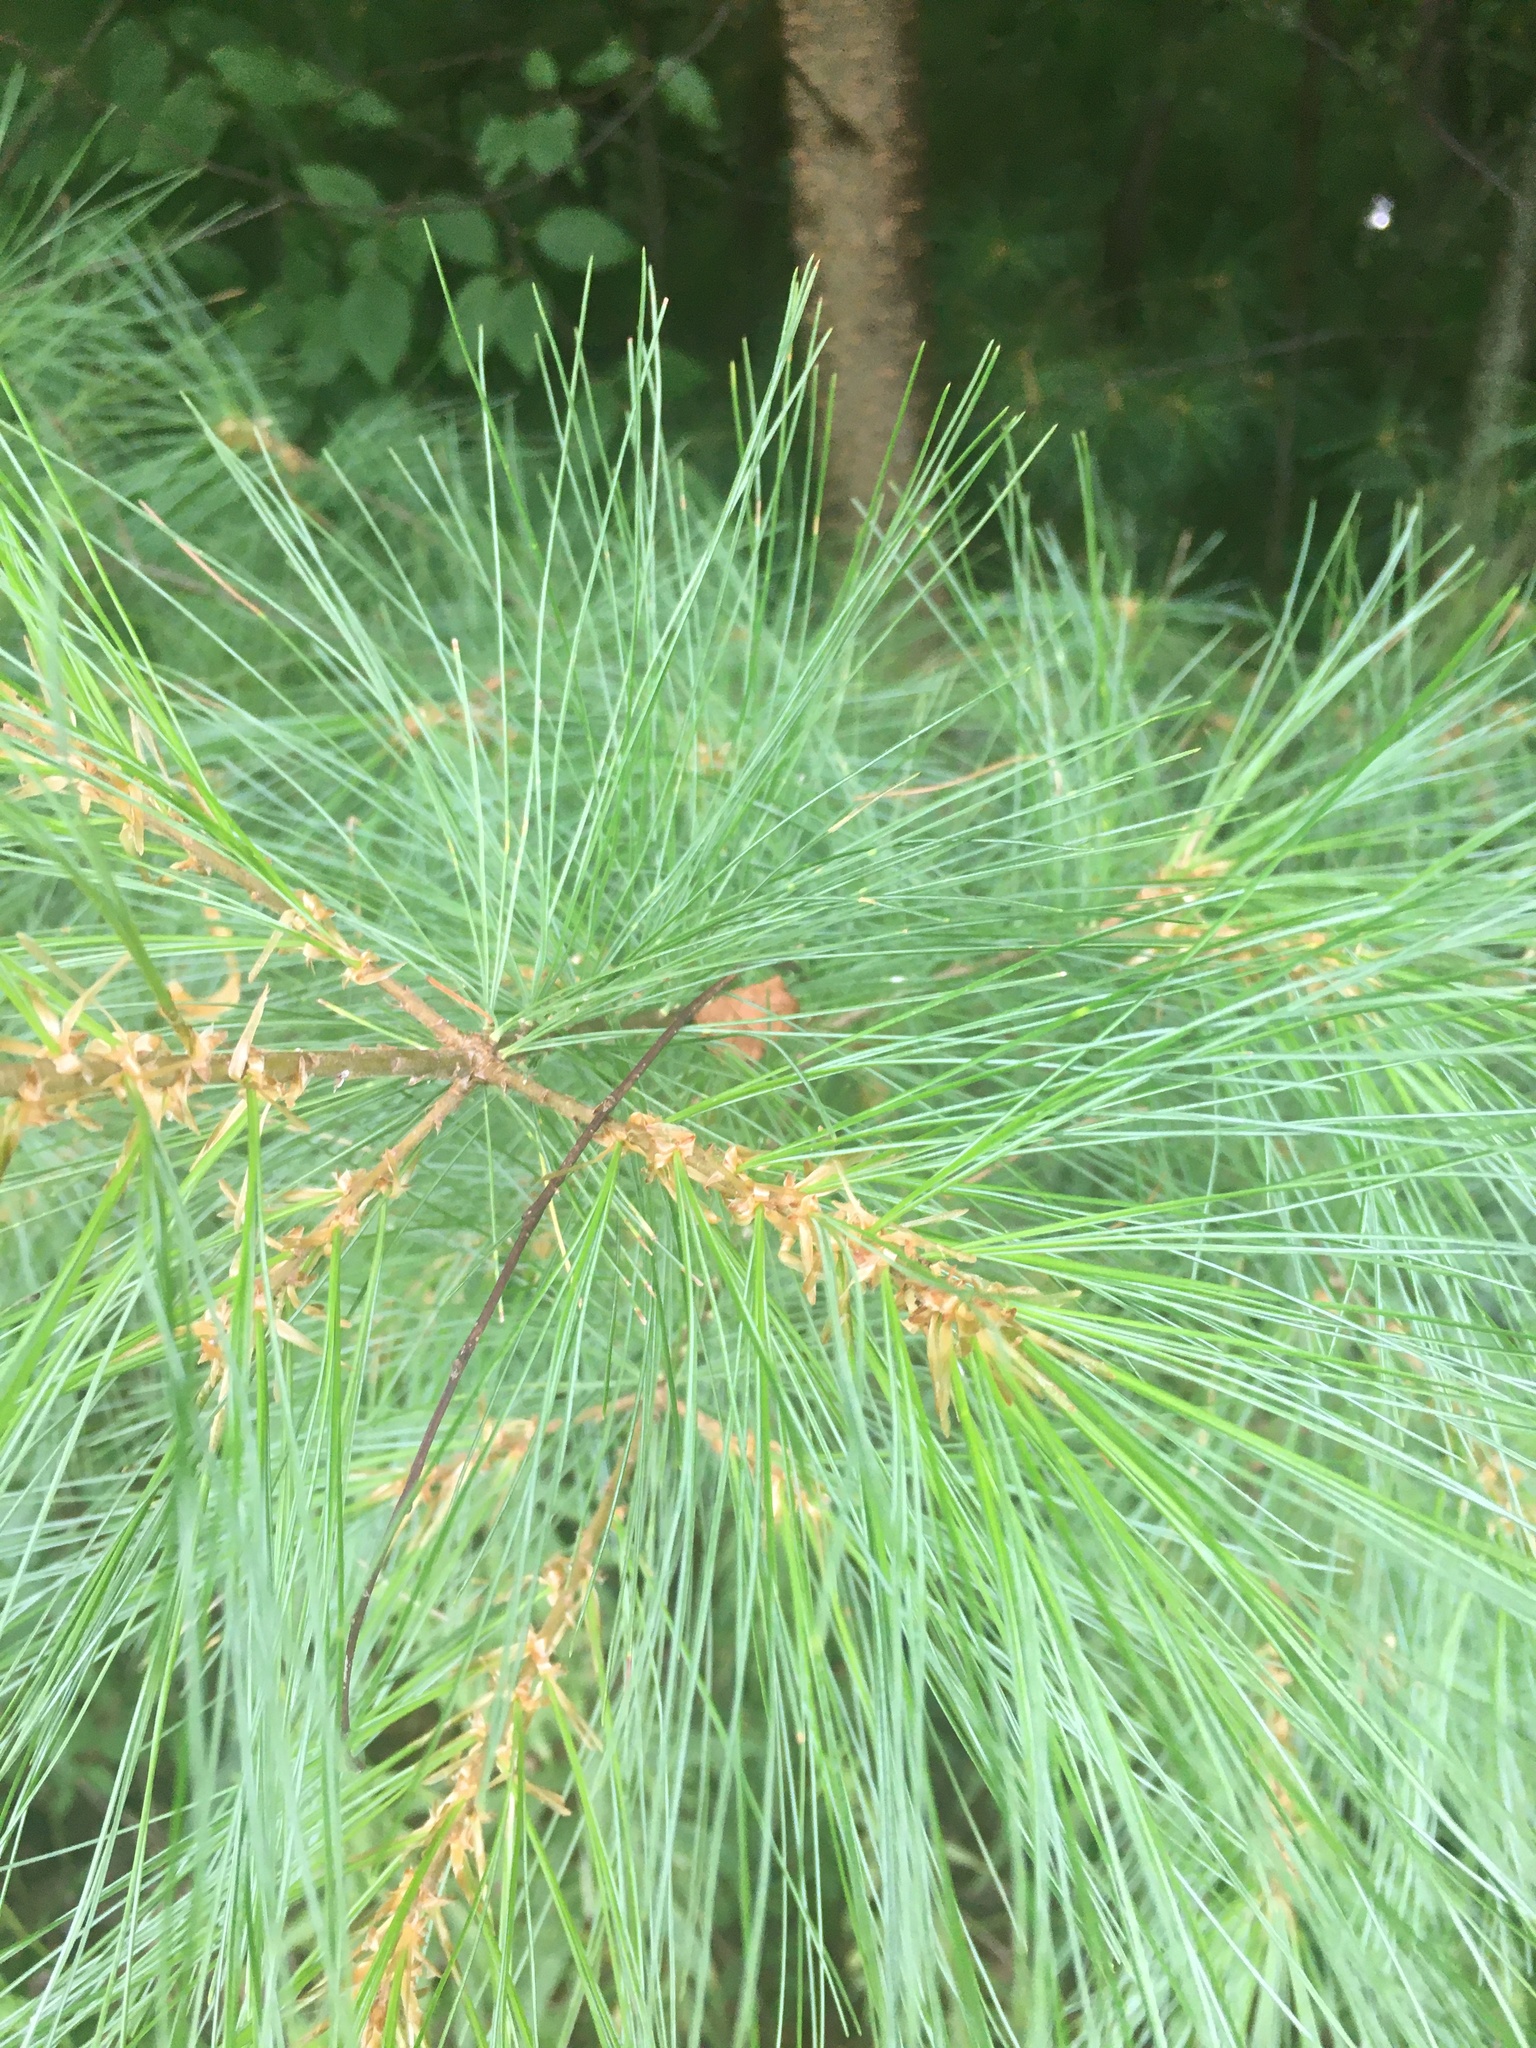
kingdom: Plantae
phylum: Tracheophyta
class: Pinopsida
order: Pinales
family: Pinaceae
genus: Pinus
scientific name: Pinus strobus
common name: Weymouth pine
